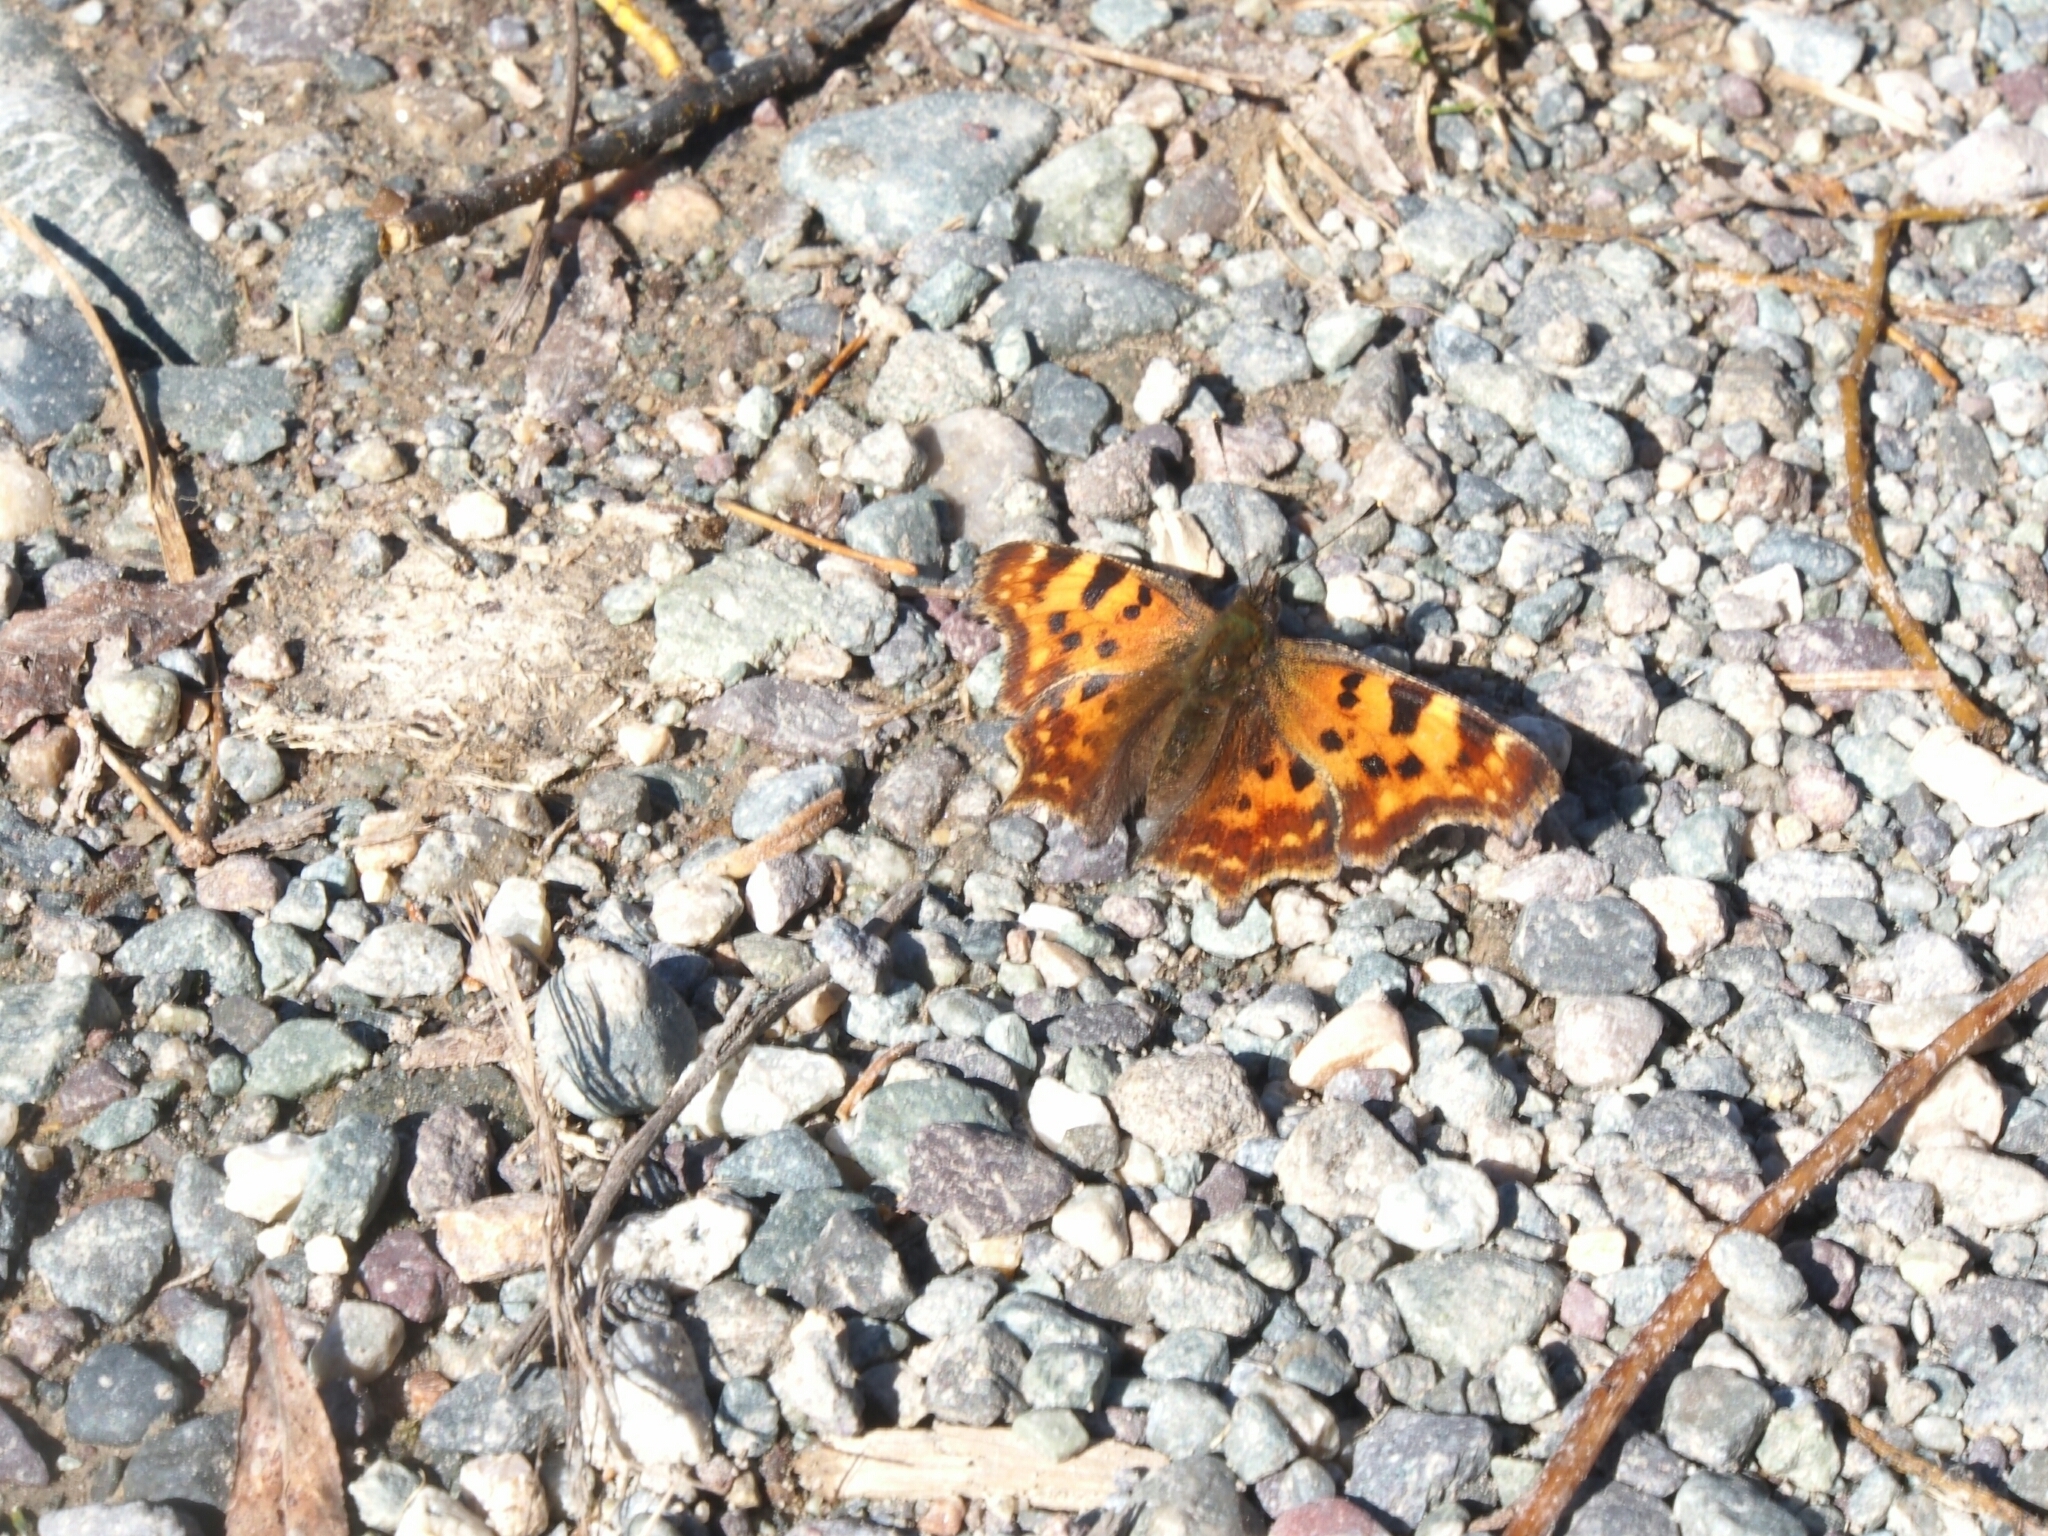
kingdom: Animalia
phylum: Arthropoda
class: Insecta
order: Lepidoptera
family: Nymphalidae
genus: Polygonia
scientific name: Polygonia c-album
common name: Comma
